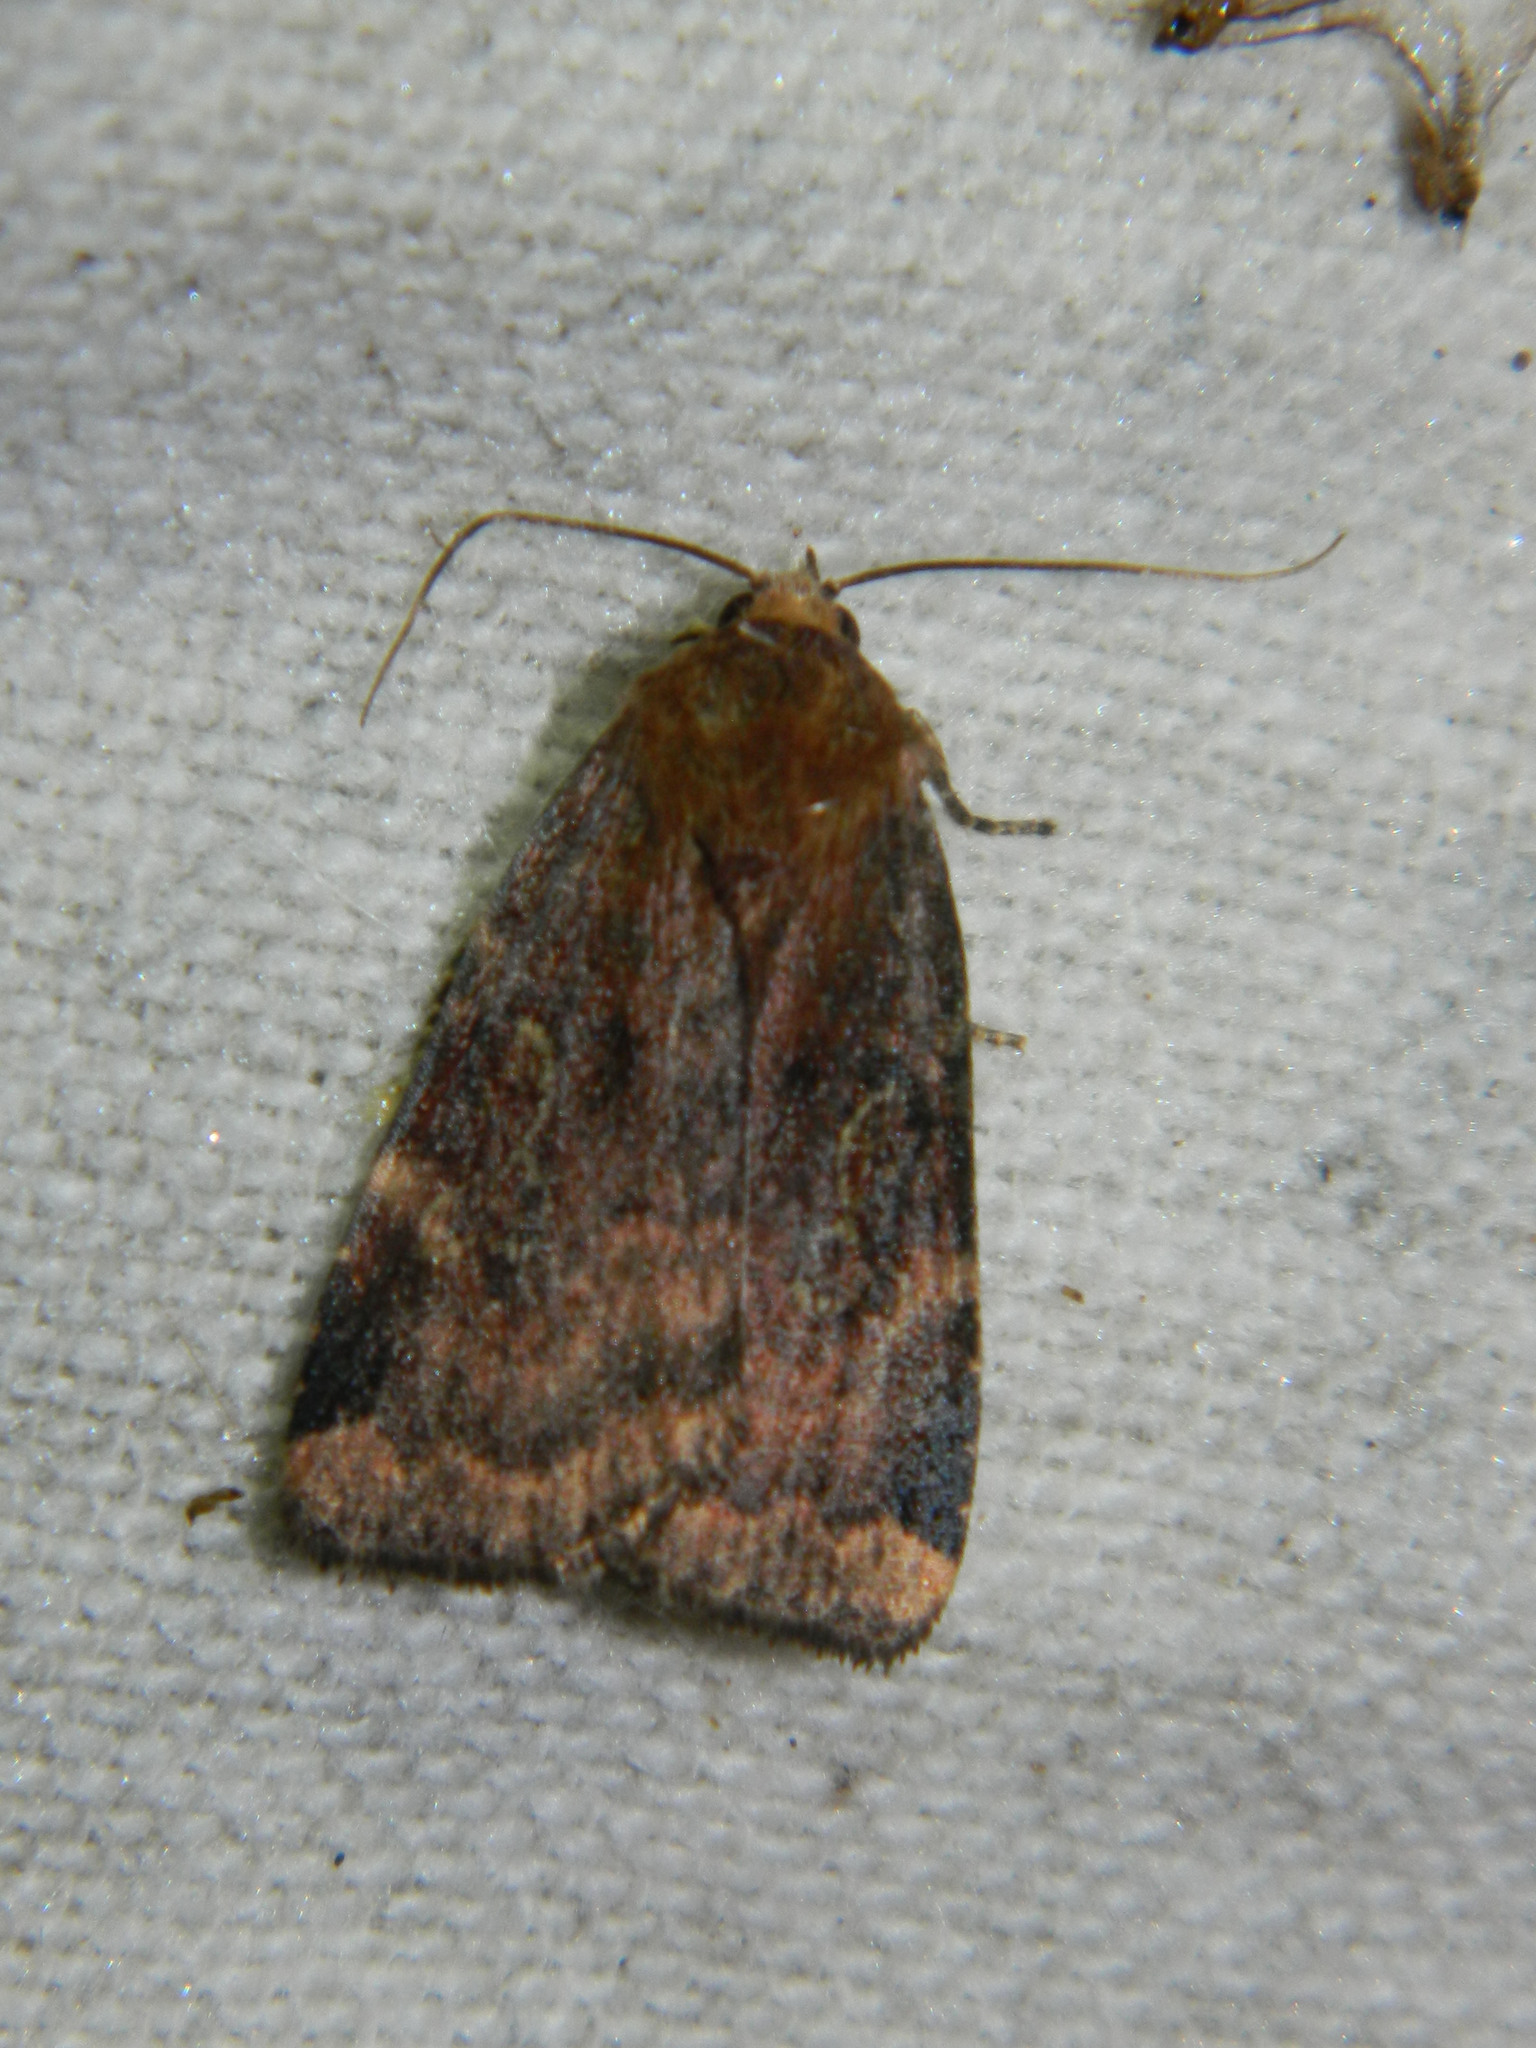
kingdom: Animalia
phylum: Arthropoda
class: Insecta
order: Lepidoptera
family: Noctuidae
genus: Cryptocala
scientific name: Cryptocala acadiensis
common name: Catocaline dart
